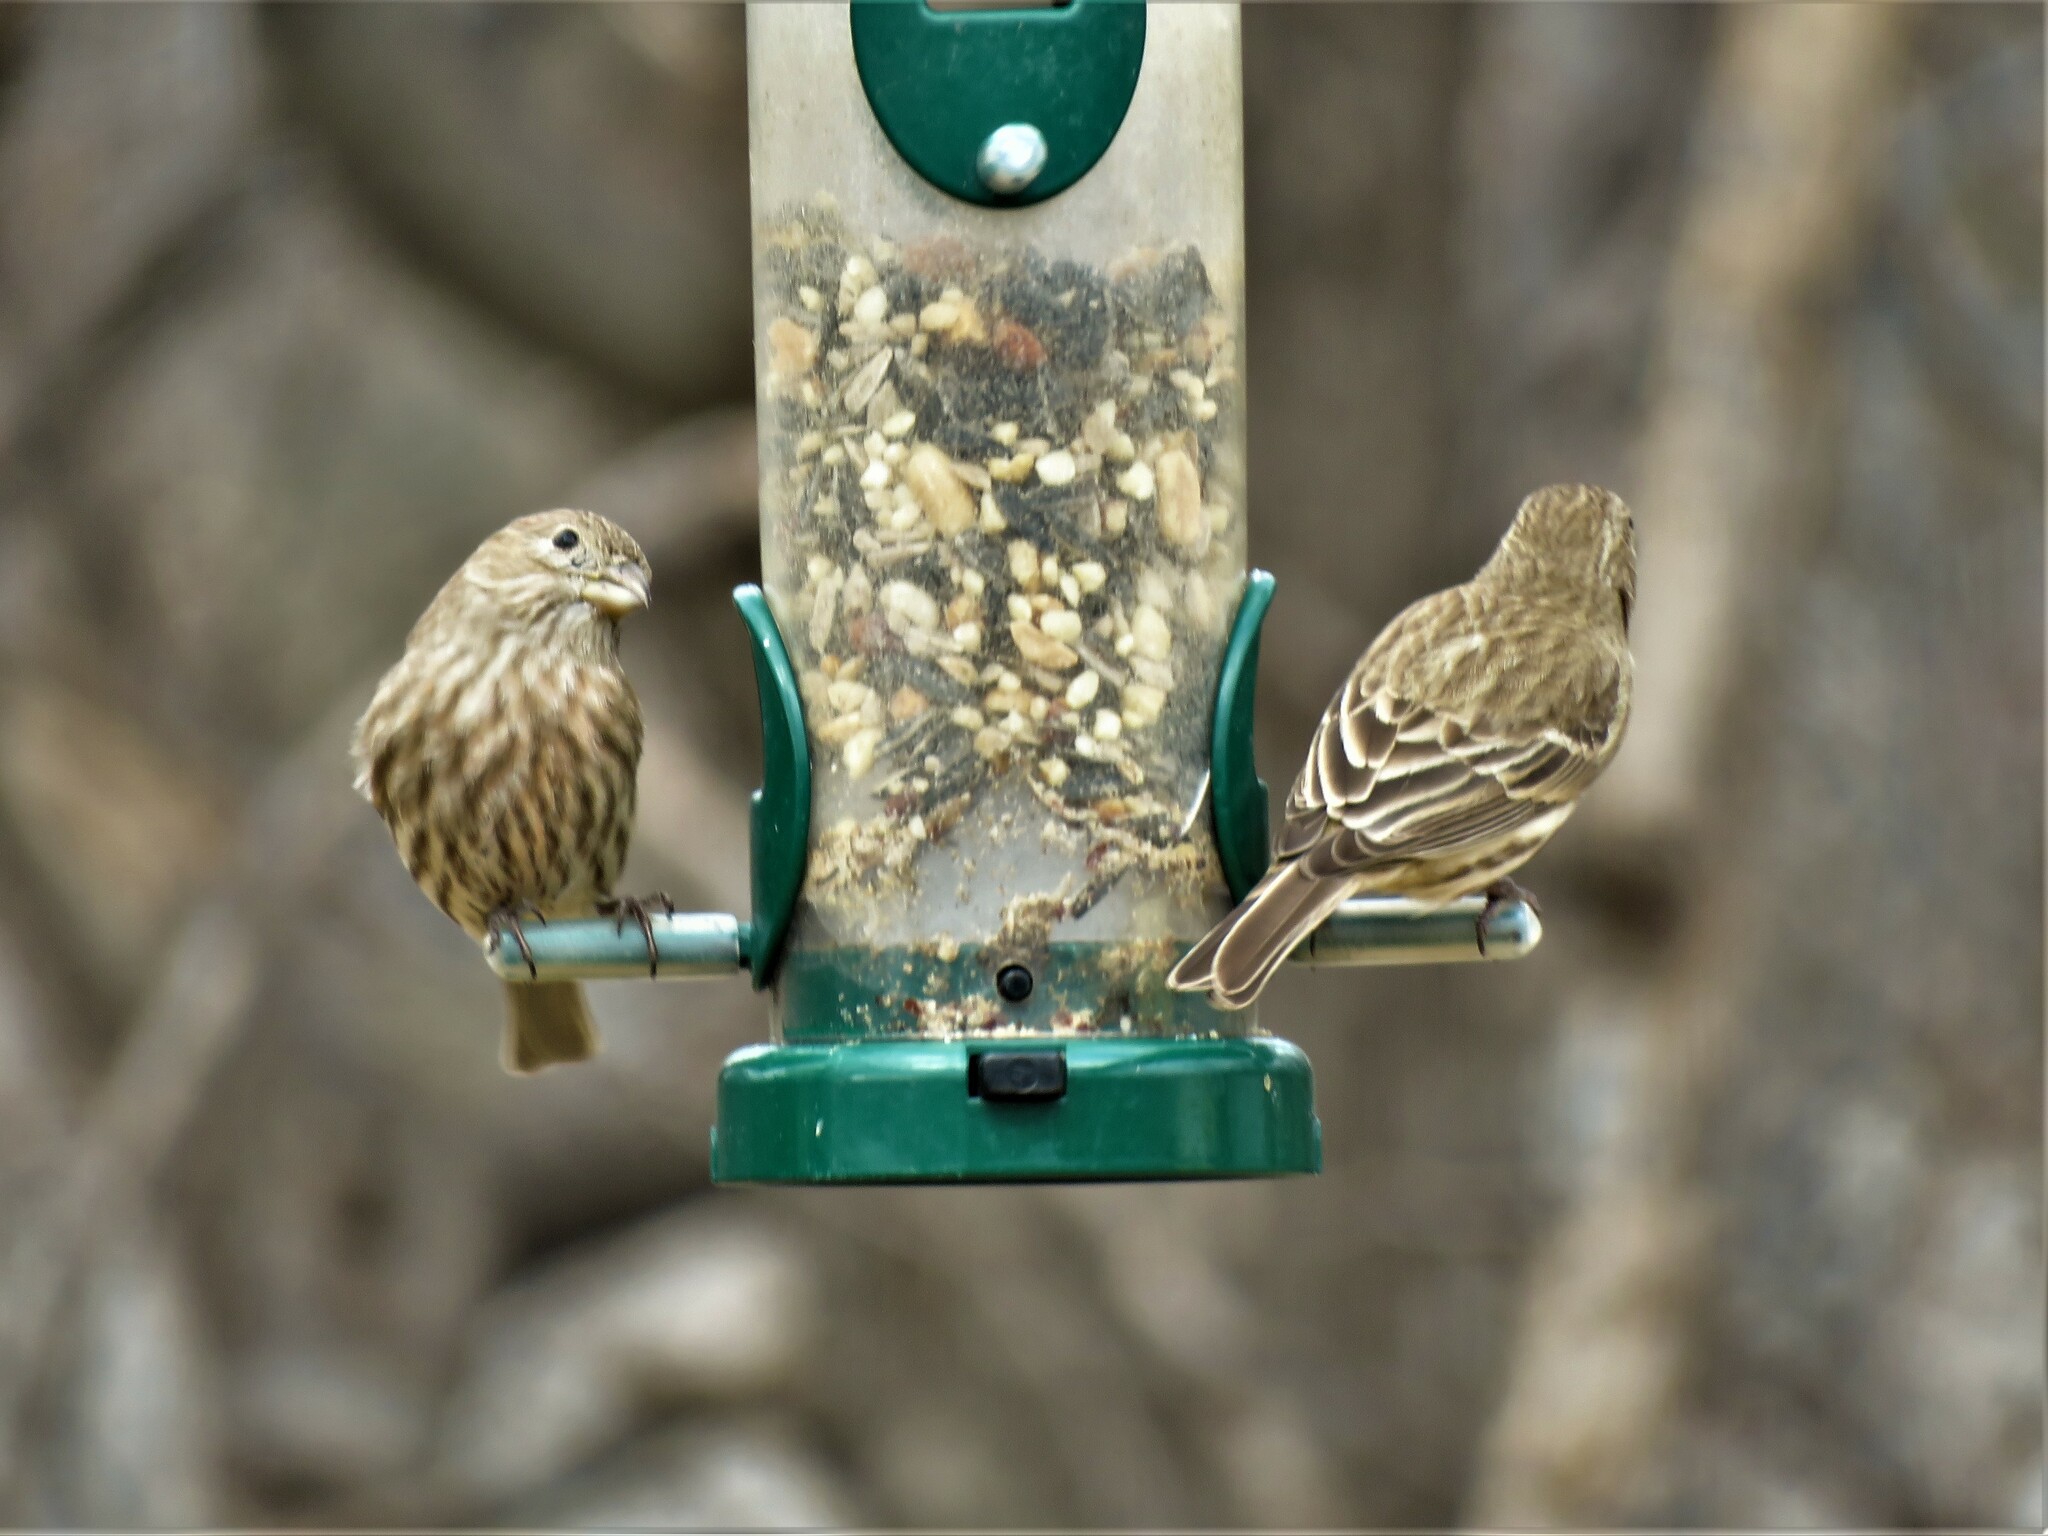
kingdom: Animalia
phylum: Chordata
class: Aves
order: Passeriformes
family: Fringillidae
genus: Haemorhous
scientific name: Haemorhous mexicanus
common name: House finch
